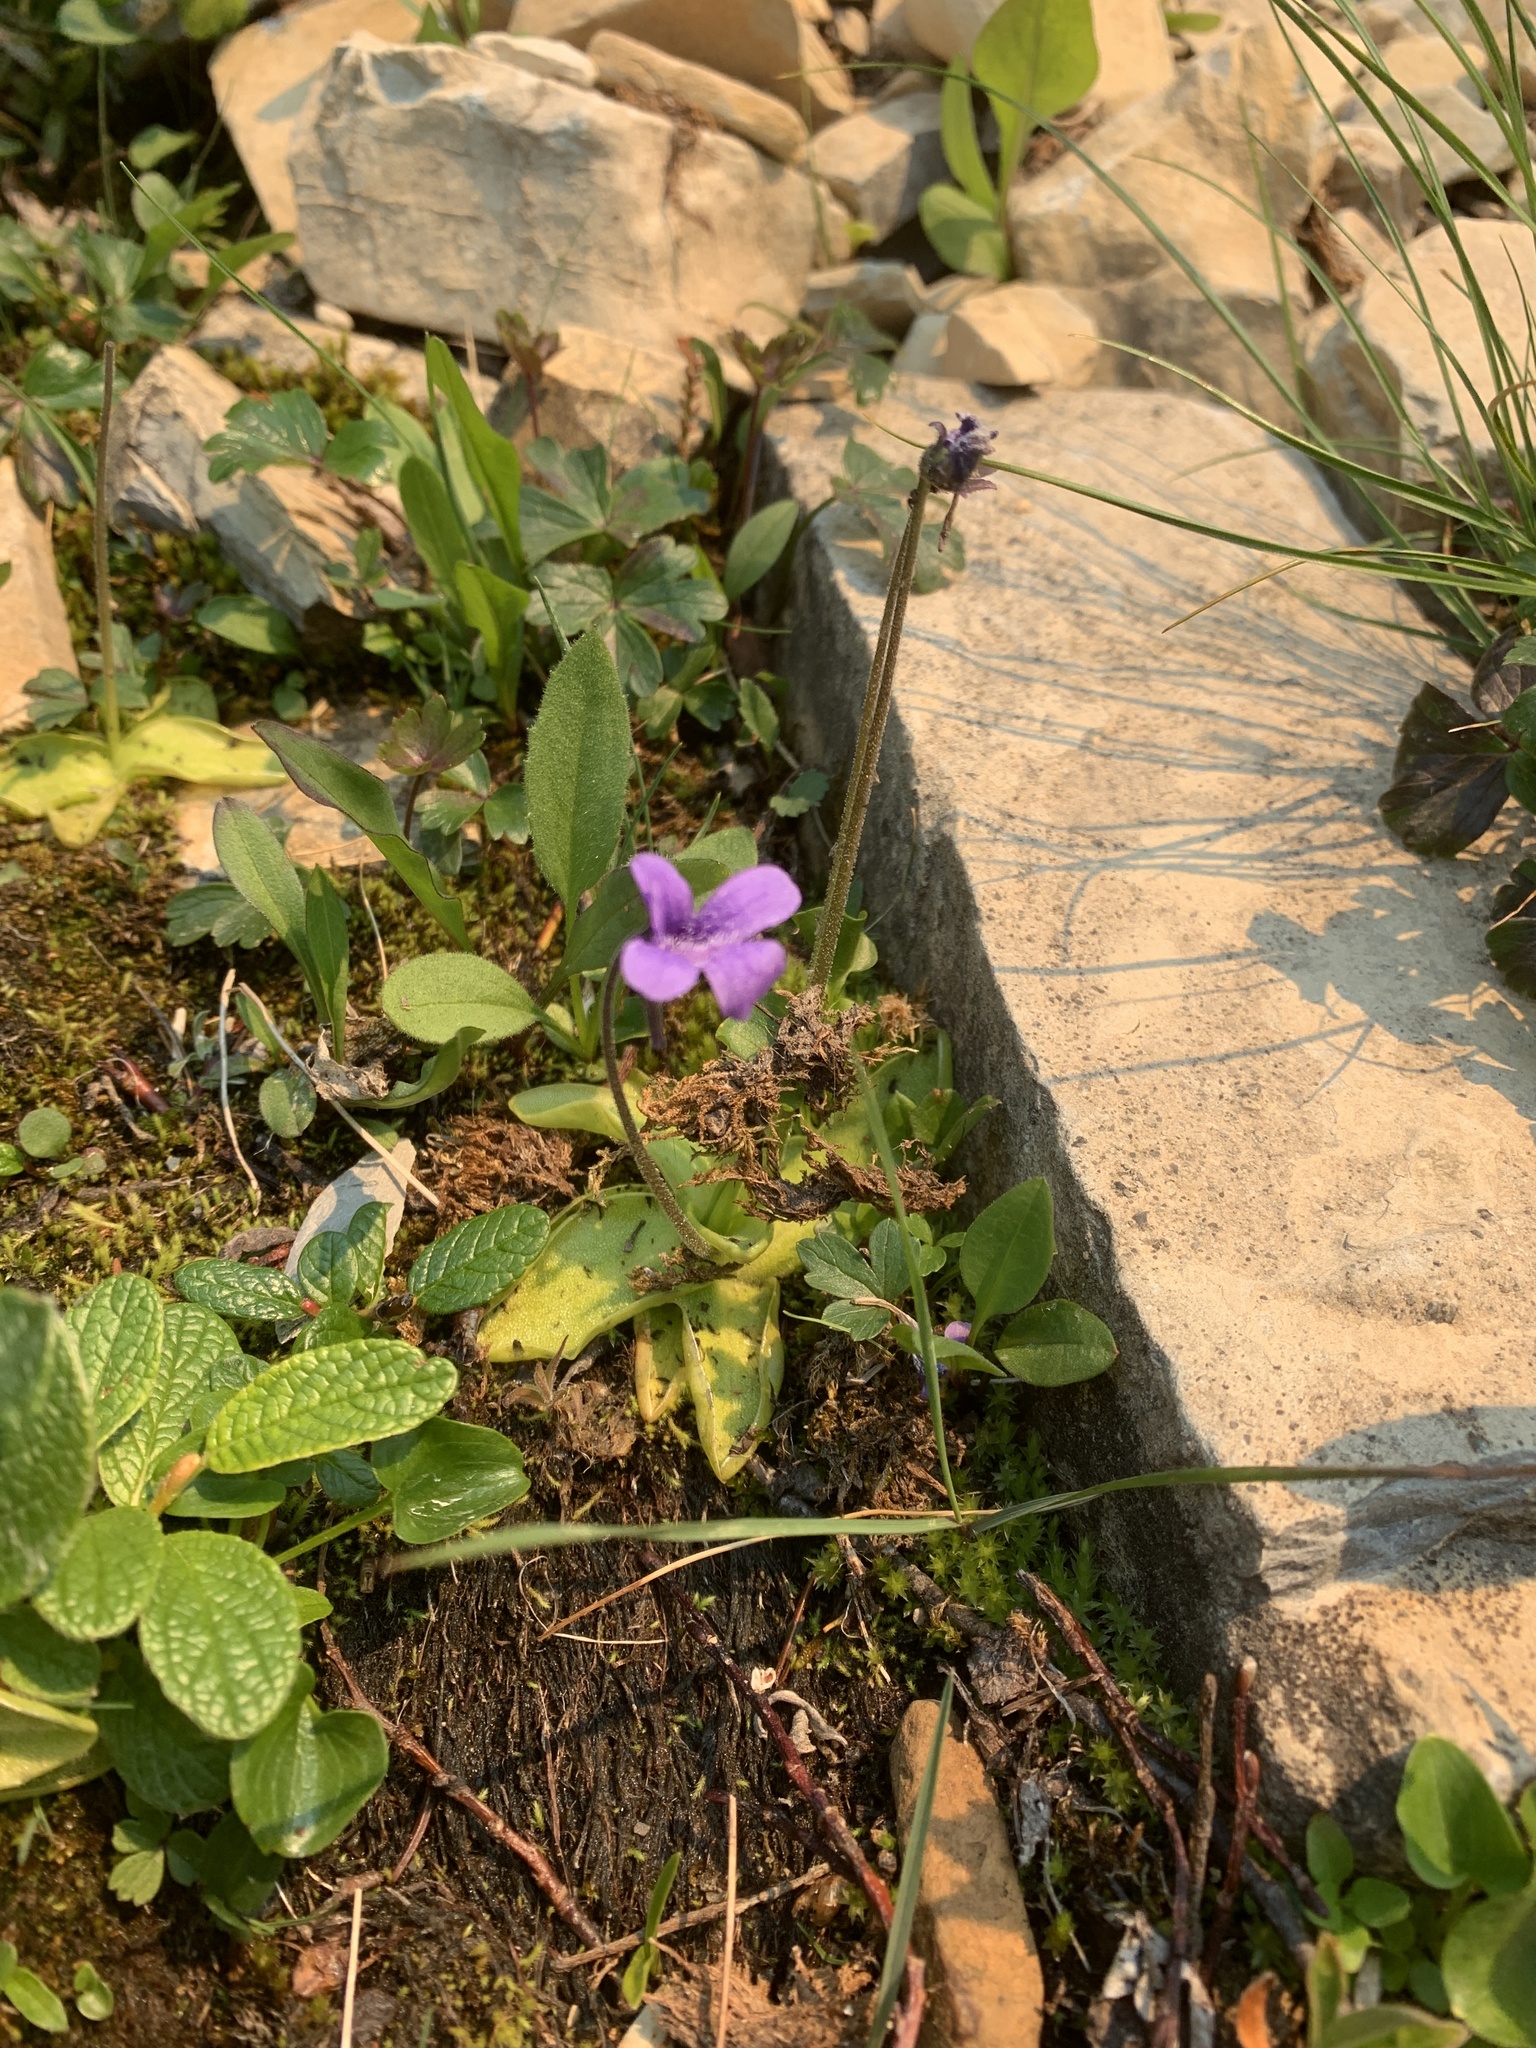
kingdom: Plantae
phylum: Tracheophyta
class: Magnoliopsida
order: Lamiales
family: Lentibulariaceae
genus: Pinguicula
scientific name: Pinguicula vulgaris
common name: Common butterwort
